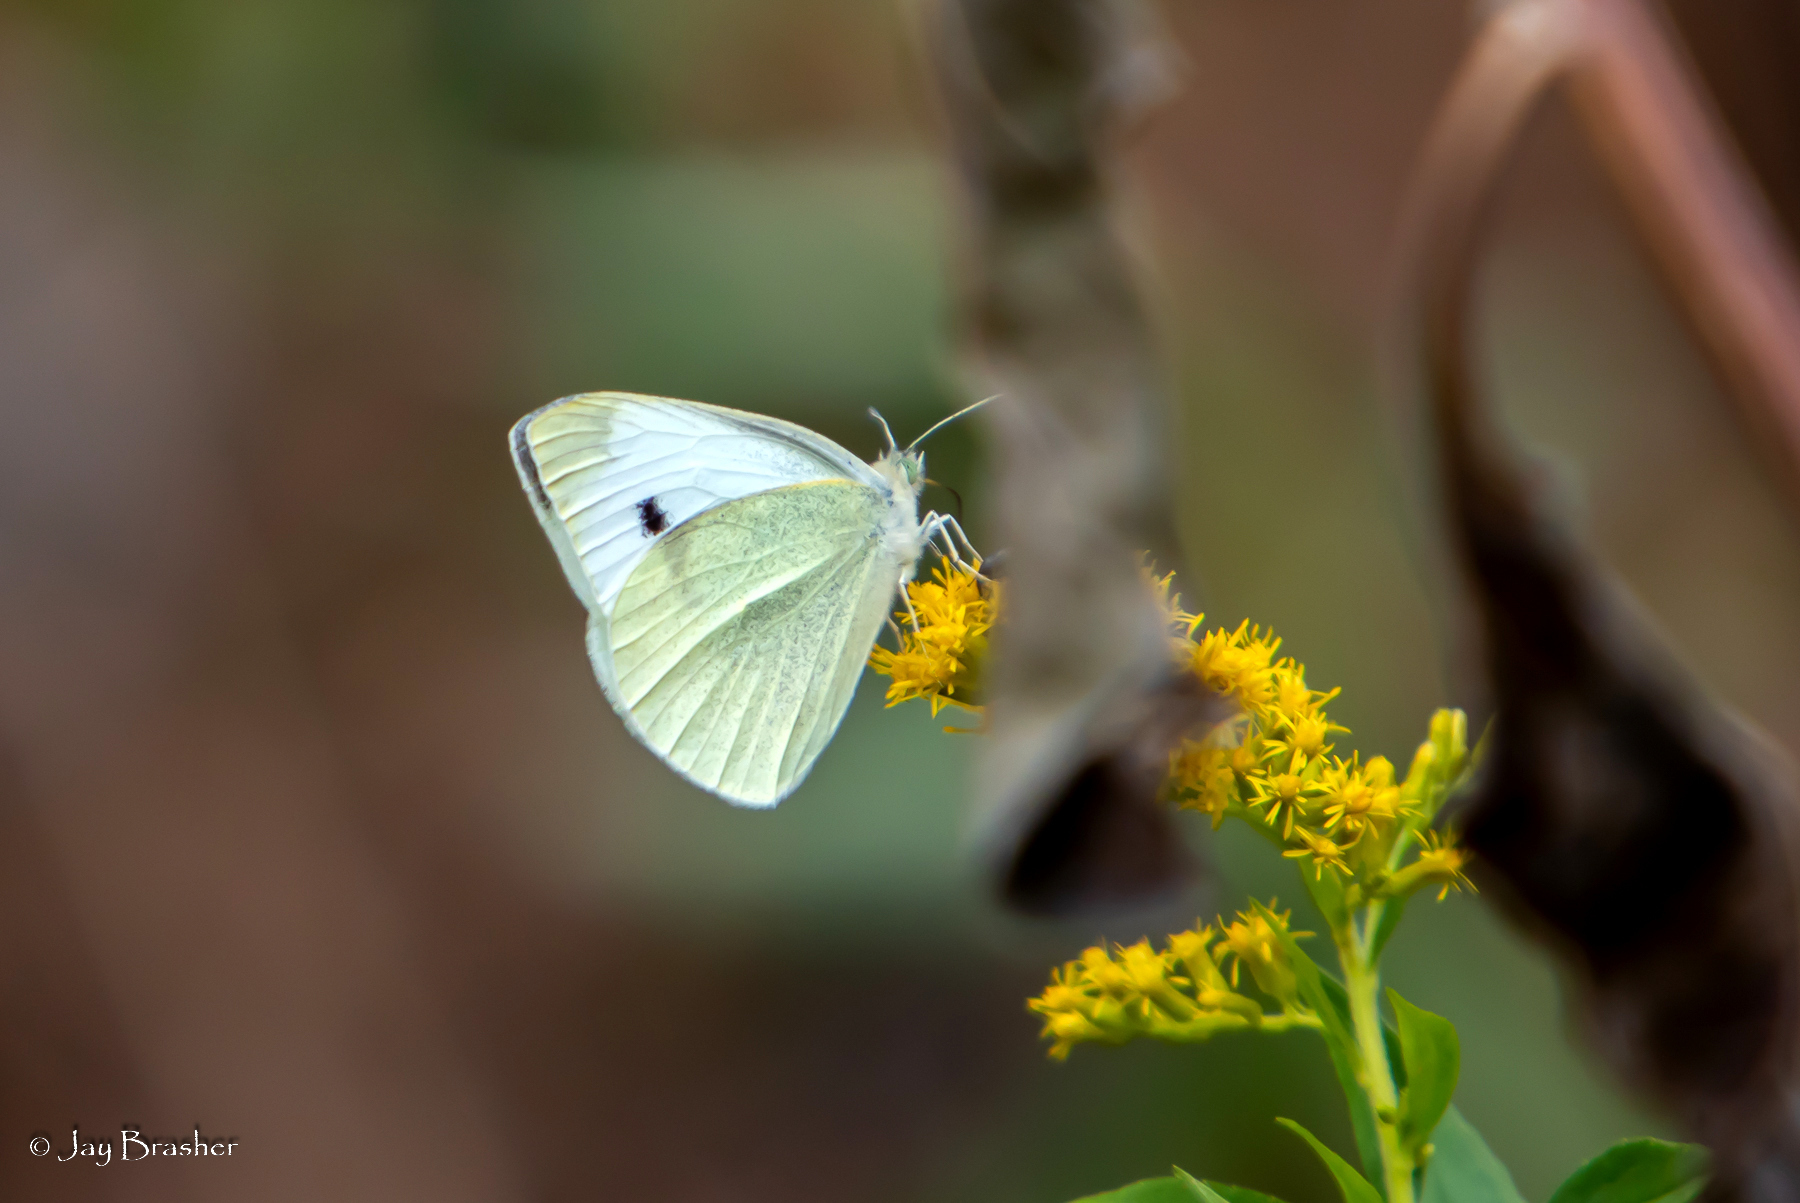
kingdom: Animalia
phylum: Arthropoda
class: Insecta
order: Lepidoptera
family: Pieridae
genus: Pieris
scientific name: Pieris rapae
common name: Small white
